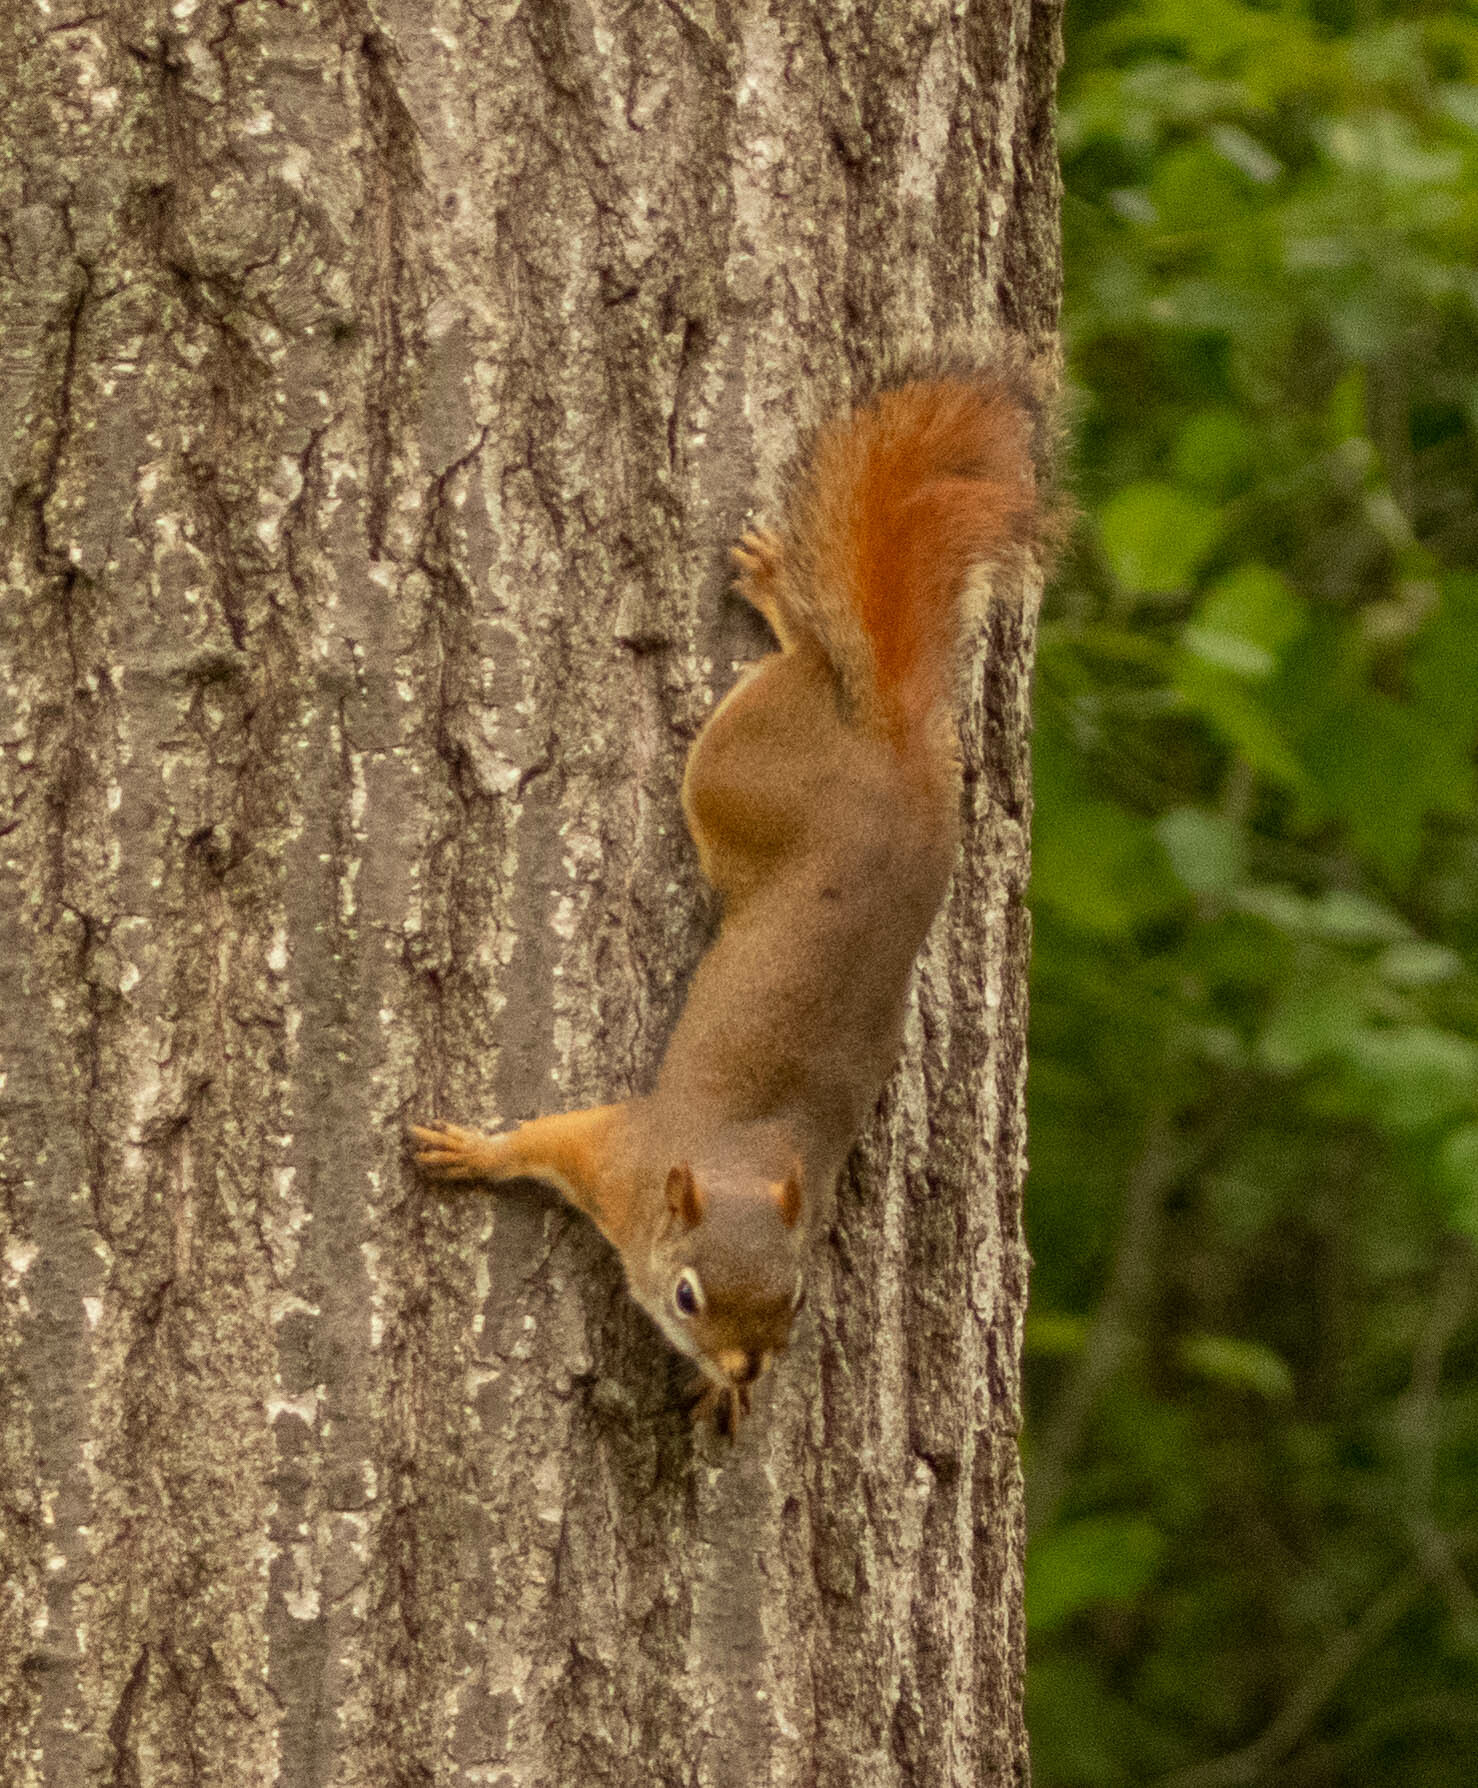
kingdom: Animalia
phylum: Chordata
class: Mammalia
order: Rodentia
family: Sciuridae
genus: Tamiasciurus
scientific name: Tamiasciurus hudsonicus
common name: Red squirrel
